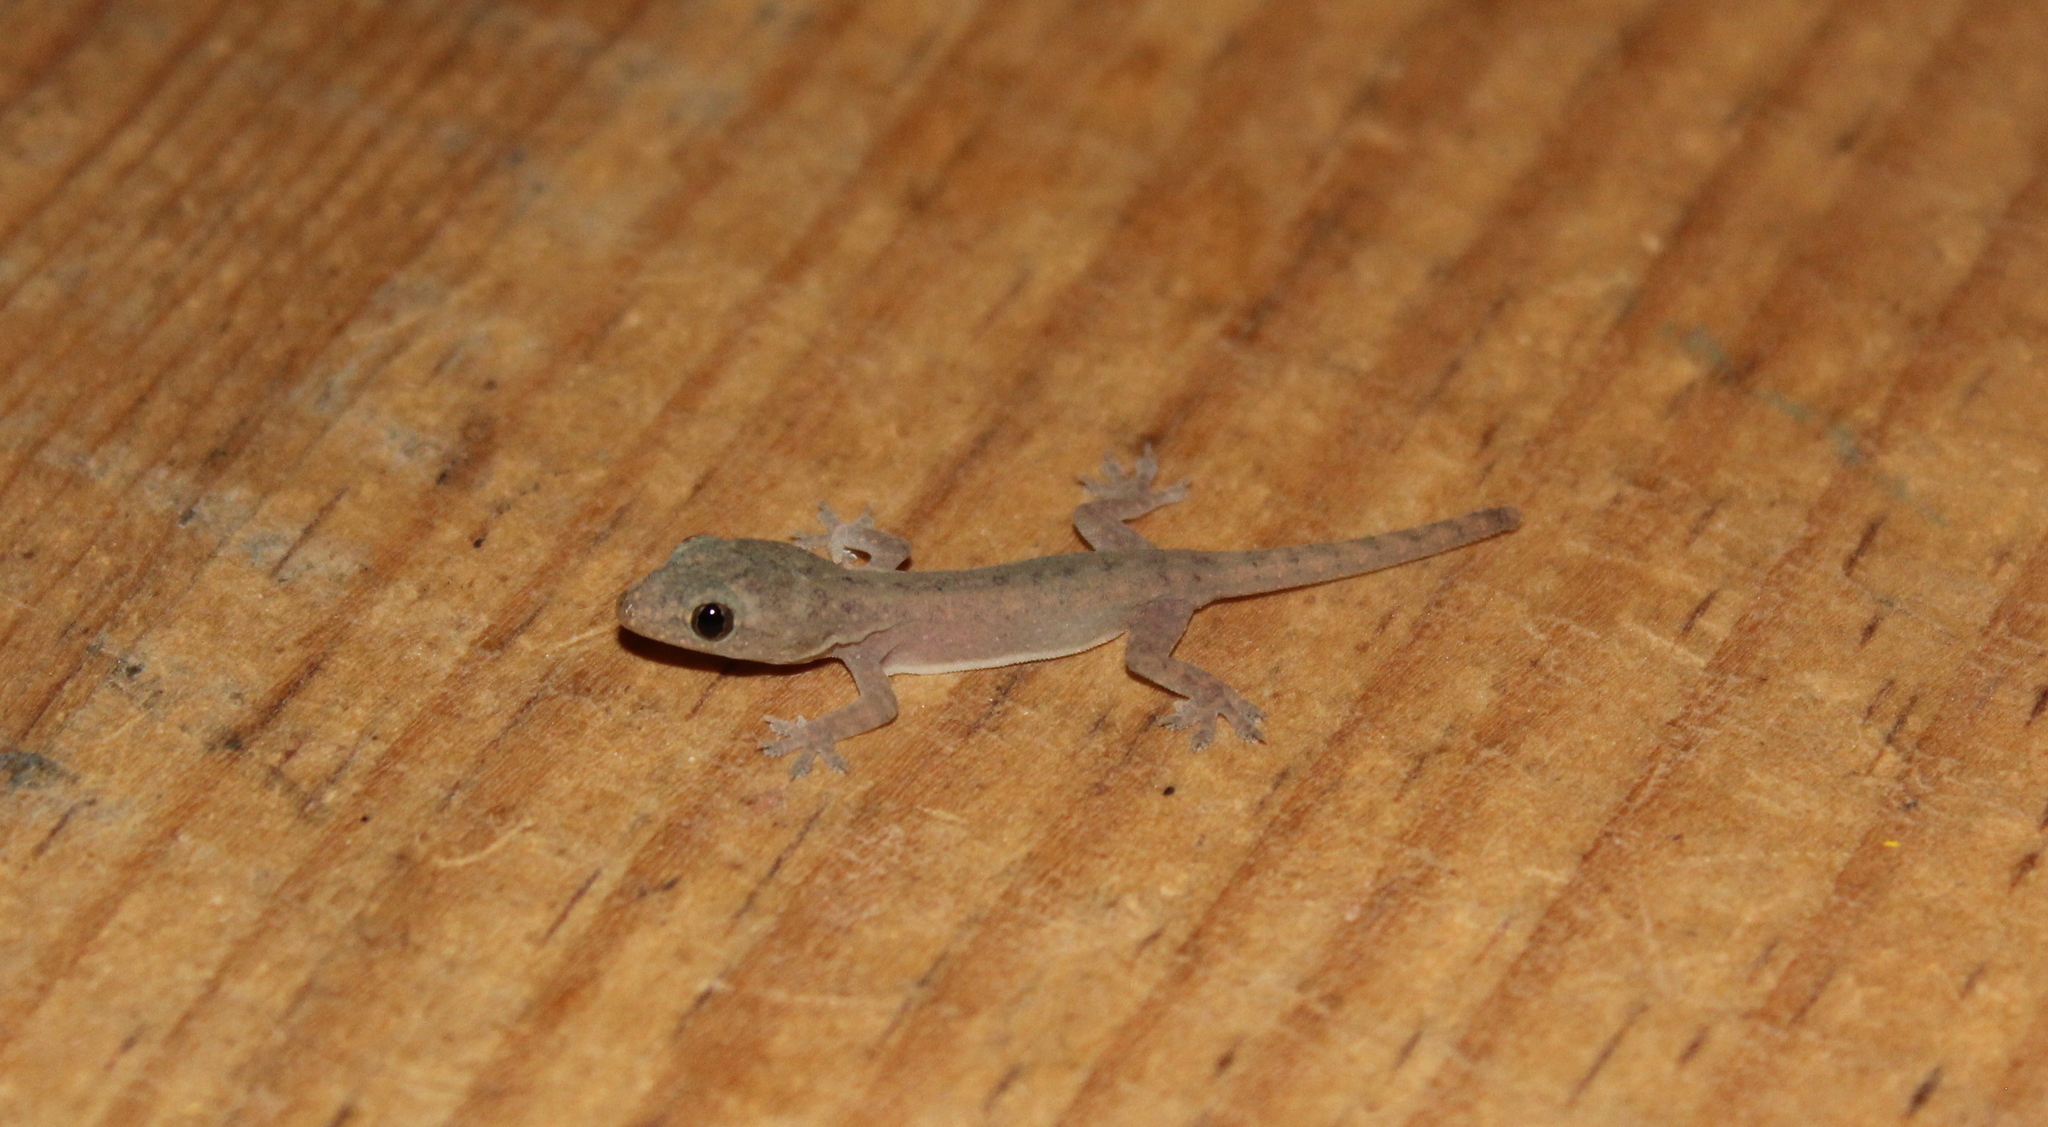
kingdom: Animalia
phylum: Chordata
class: Squamata
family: Gekkonidae
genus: Hemidactylus
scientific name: Hemidactylus frenatus
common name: Common house gecko
